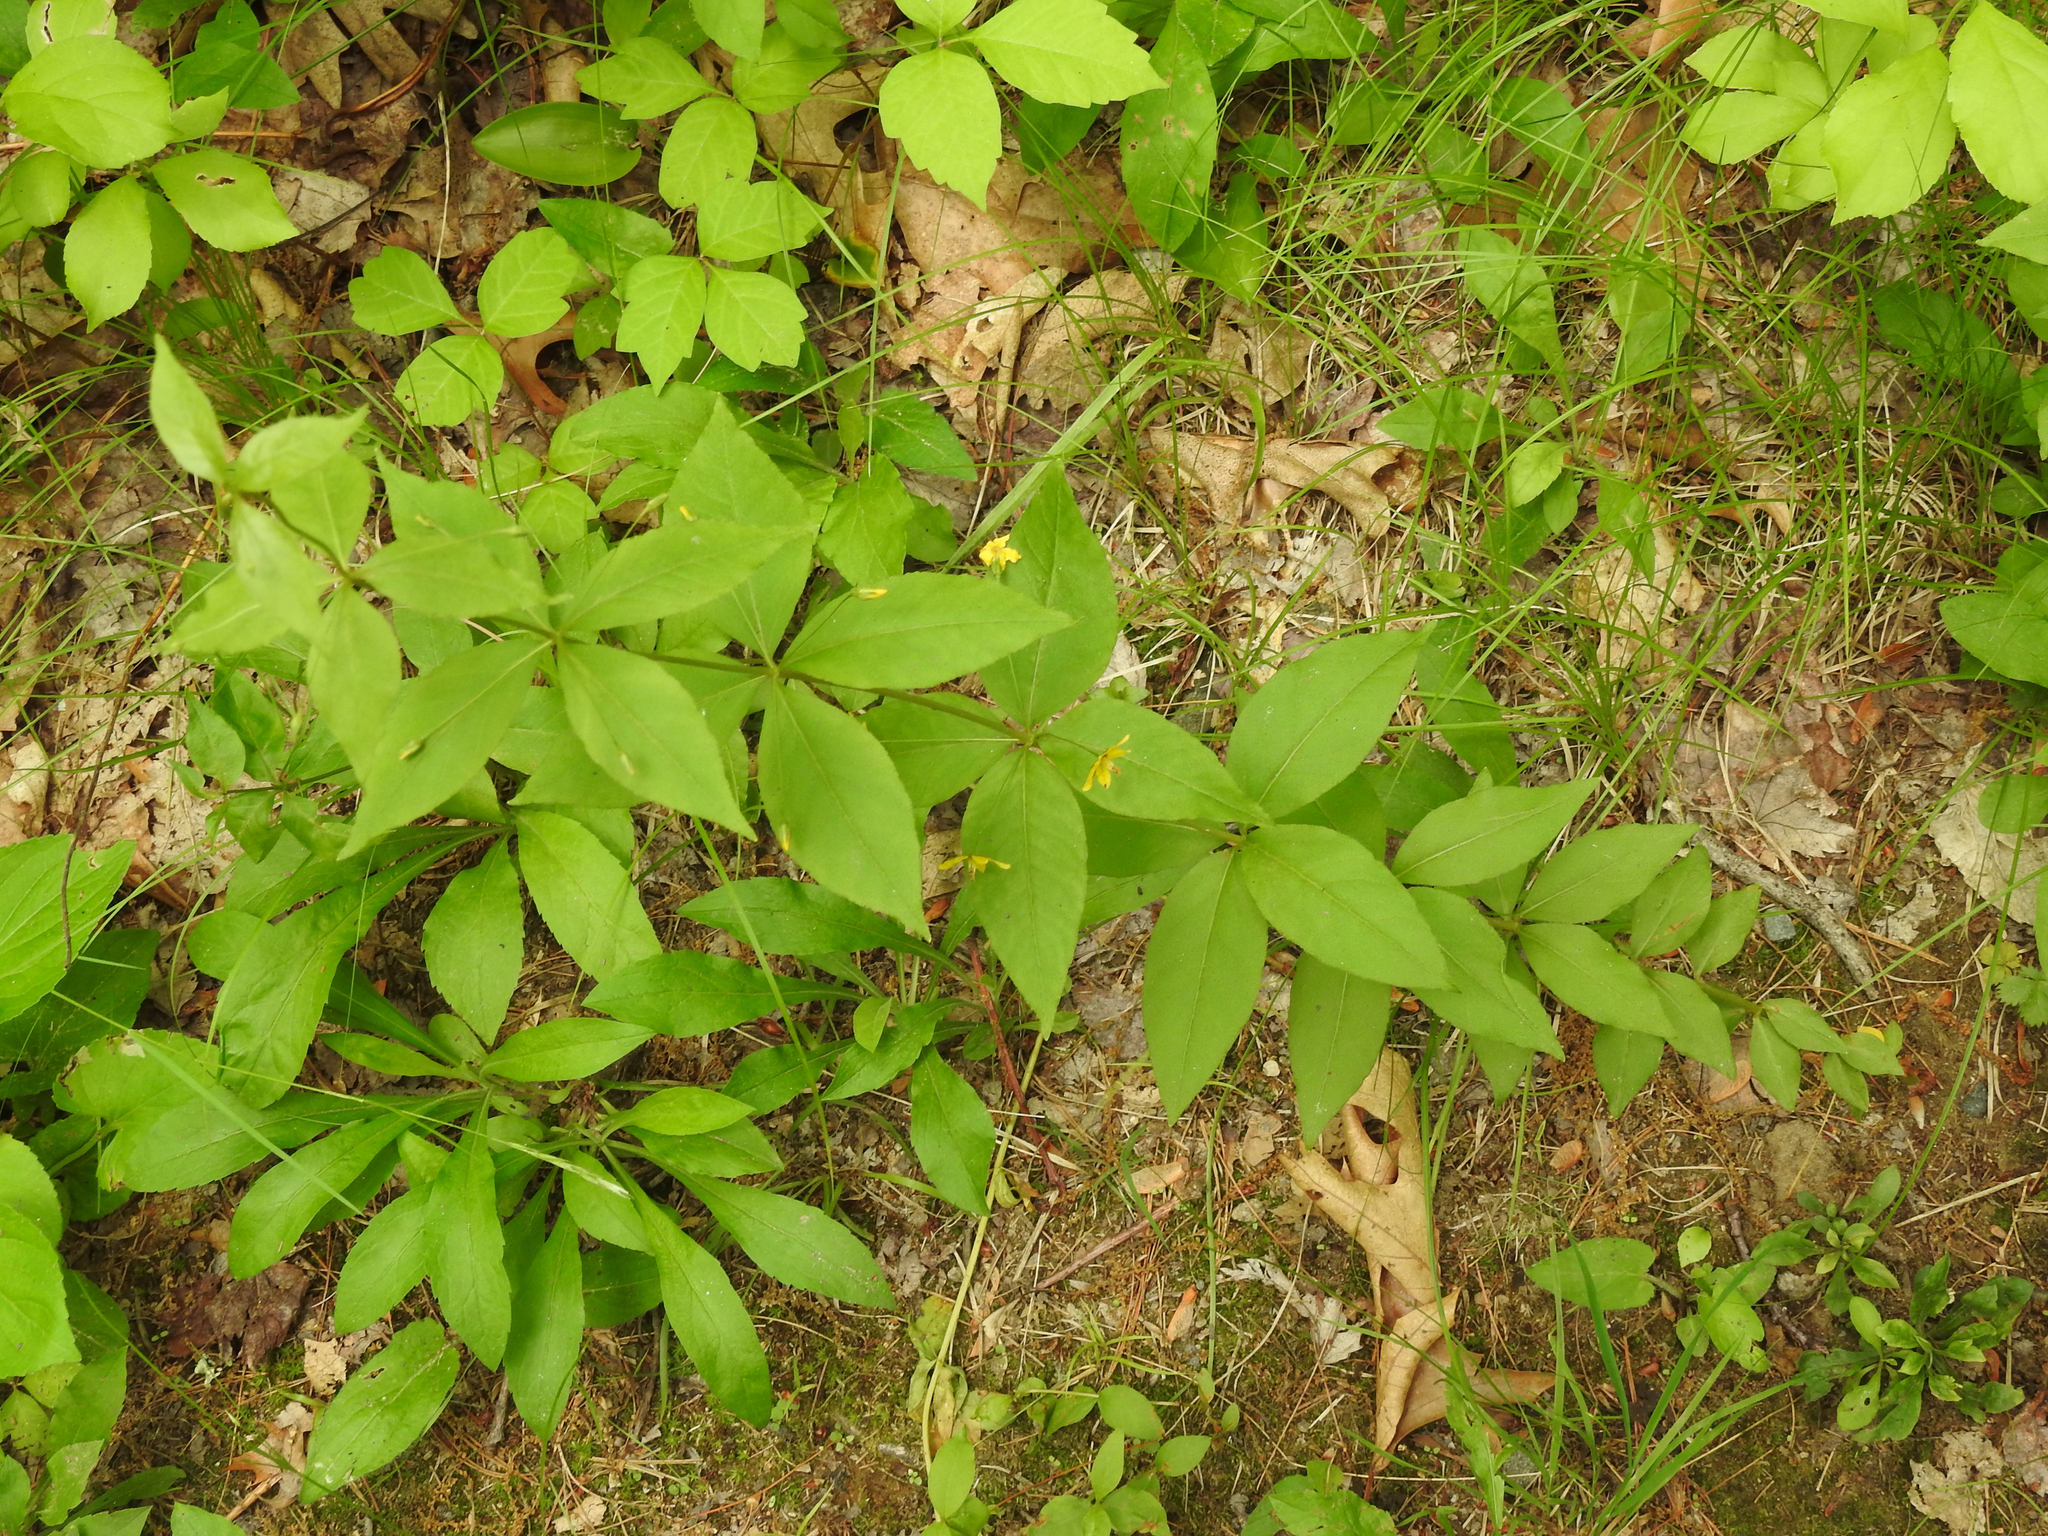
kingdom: Plantae
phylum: Tracheophyta
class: Magnoliopsida
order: Ericales
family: Primulaceae
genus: Lysimachia
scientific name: Lysimachia quadrifolia
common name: Whorled loosestrife
